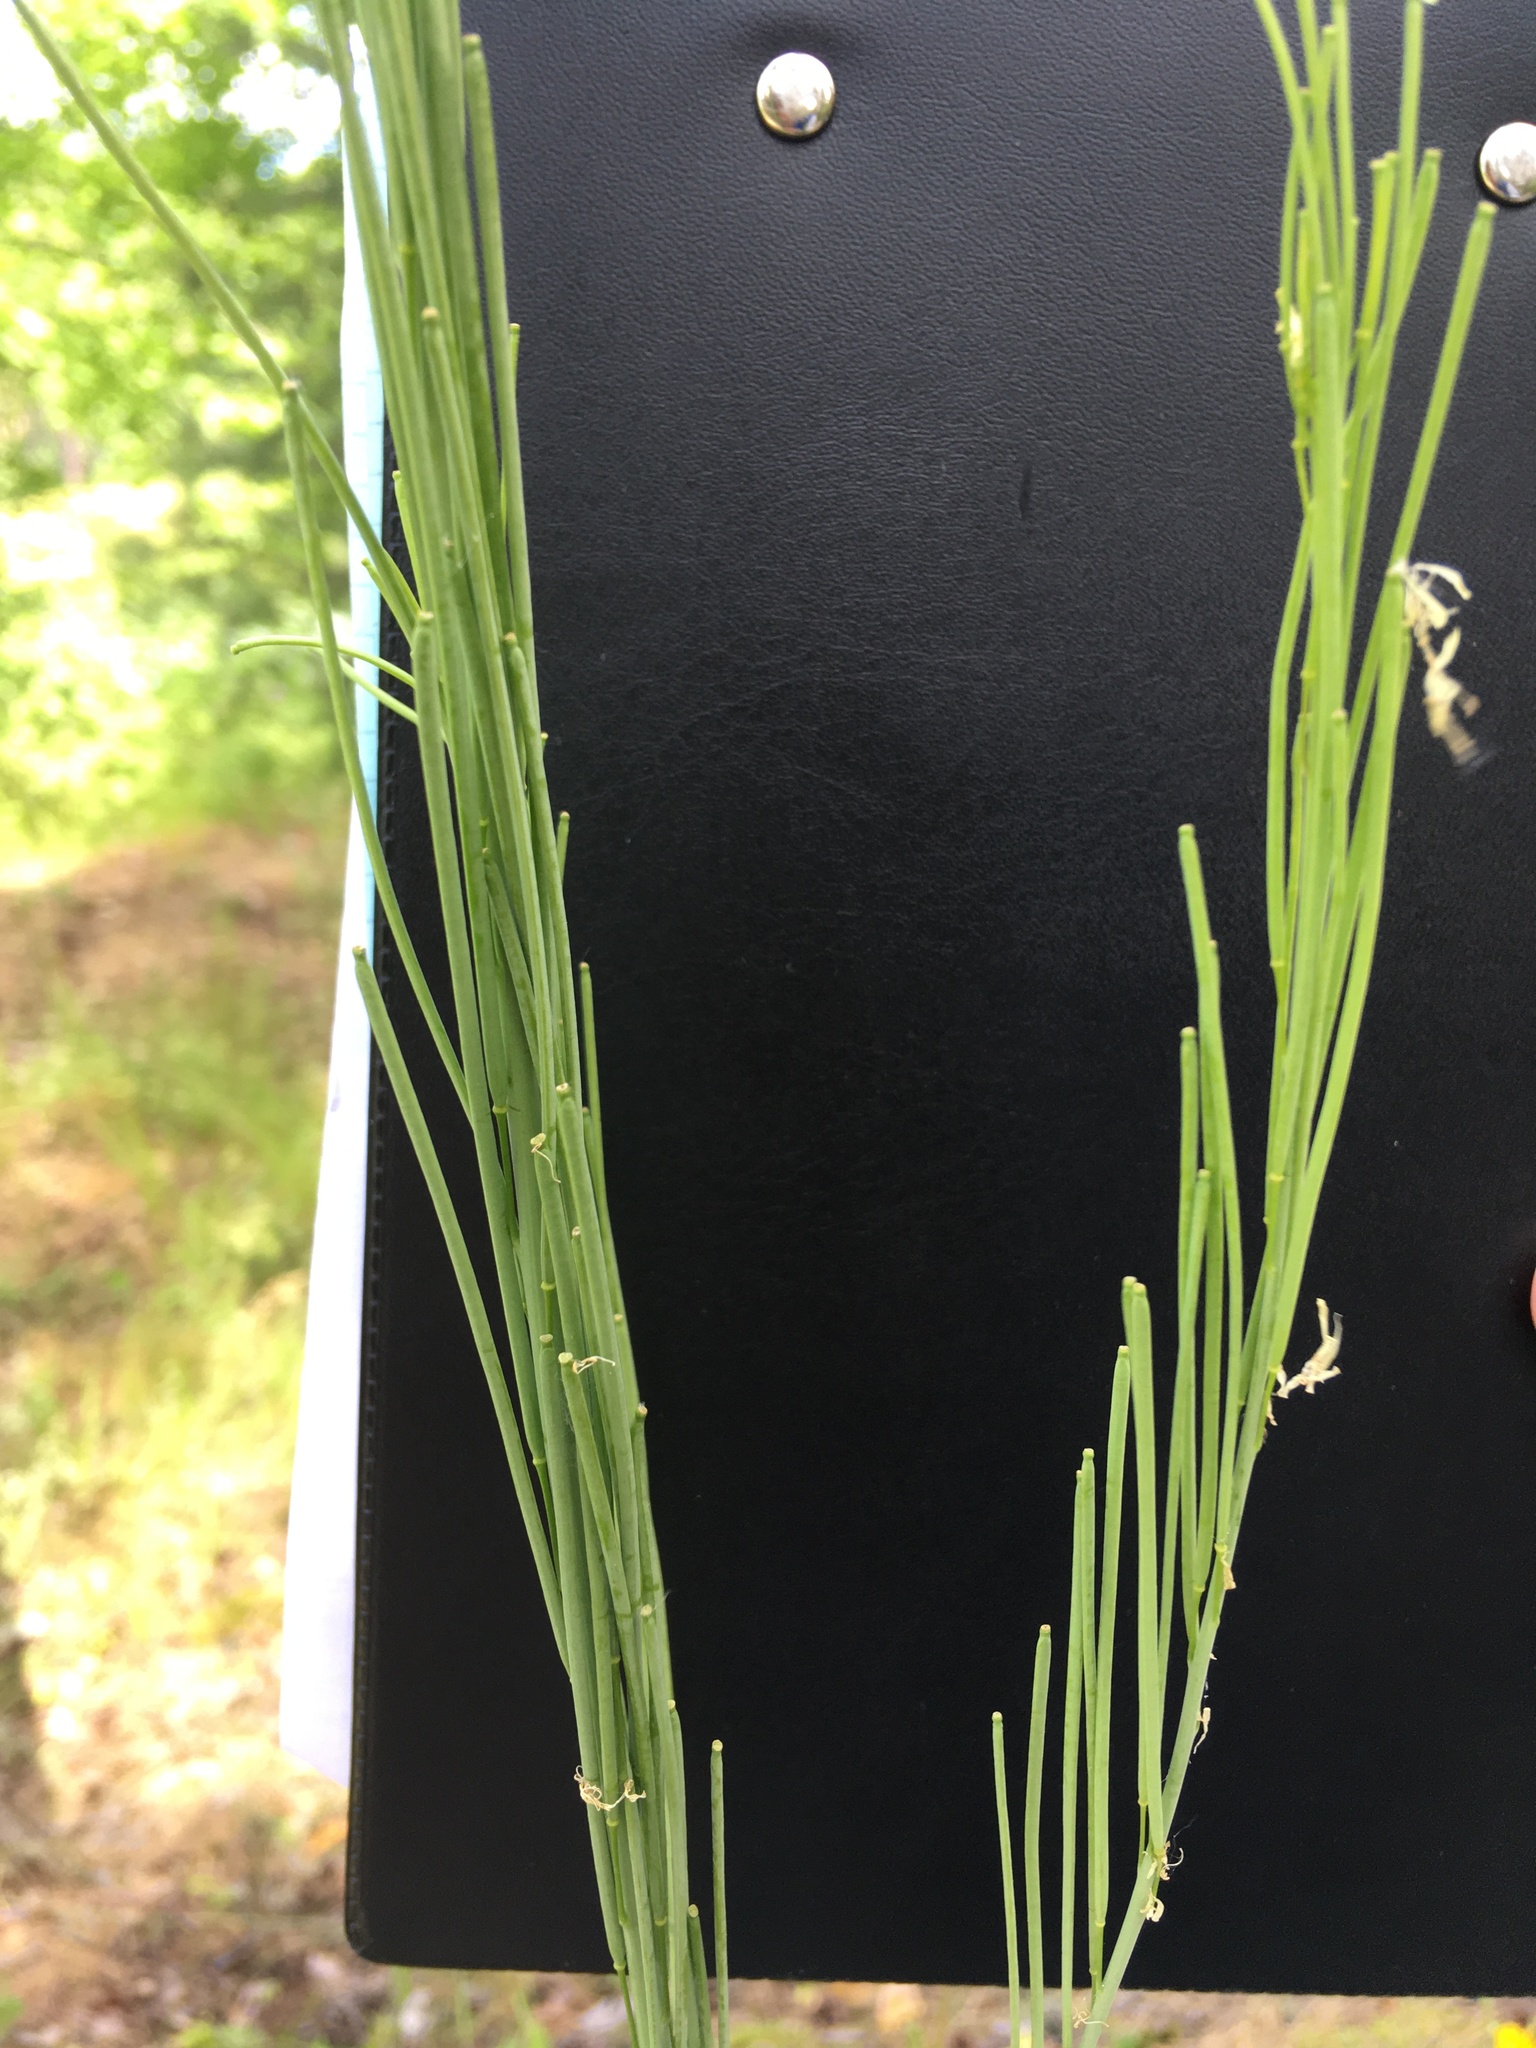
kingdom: Plantae
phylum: Tracheophyta
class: Magnoliopsida
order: Brassicales
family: Brassicaceae
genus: Turritis
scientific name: Turritis glabra
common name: Tower rockcress
